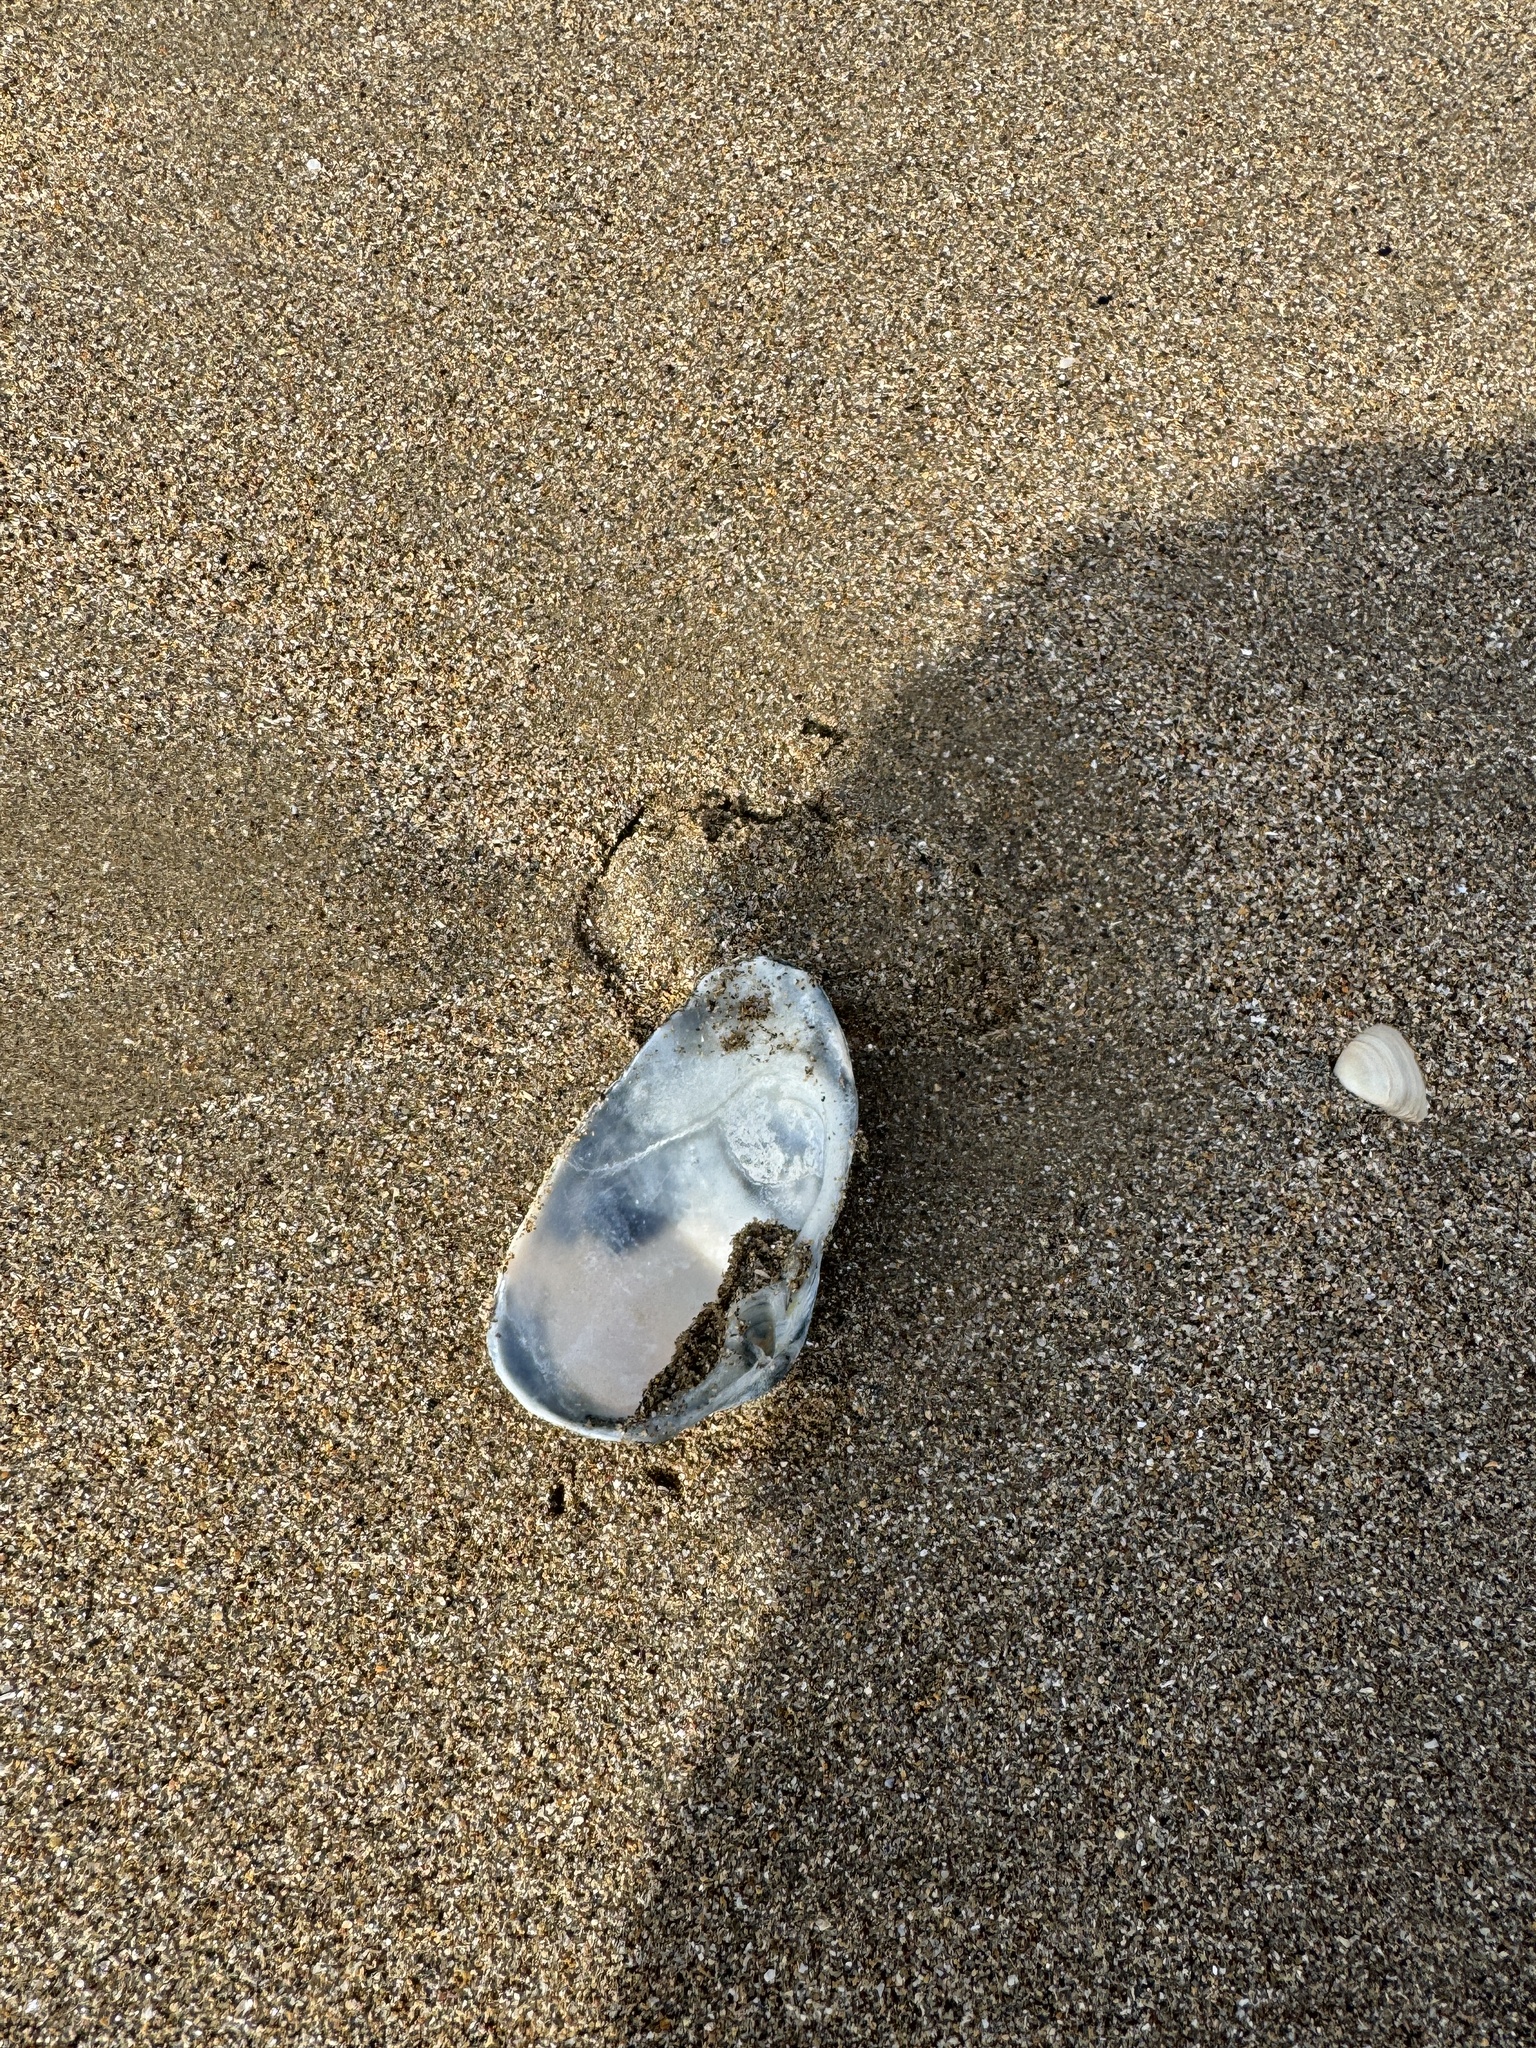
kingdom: Animalia
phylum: Mollusca
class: Bivalvia
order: Venerida
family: Mactridae
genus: Eastonia
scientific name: Eastonia rugosa
